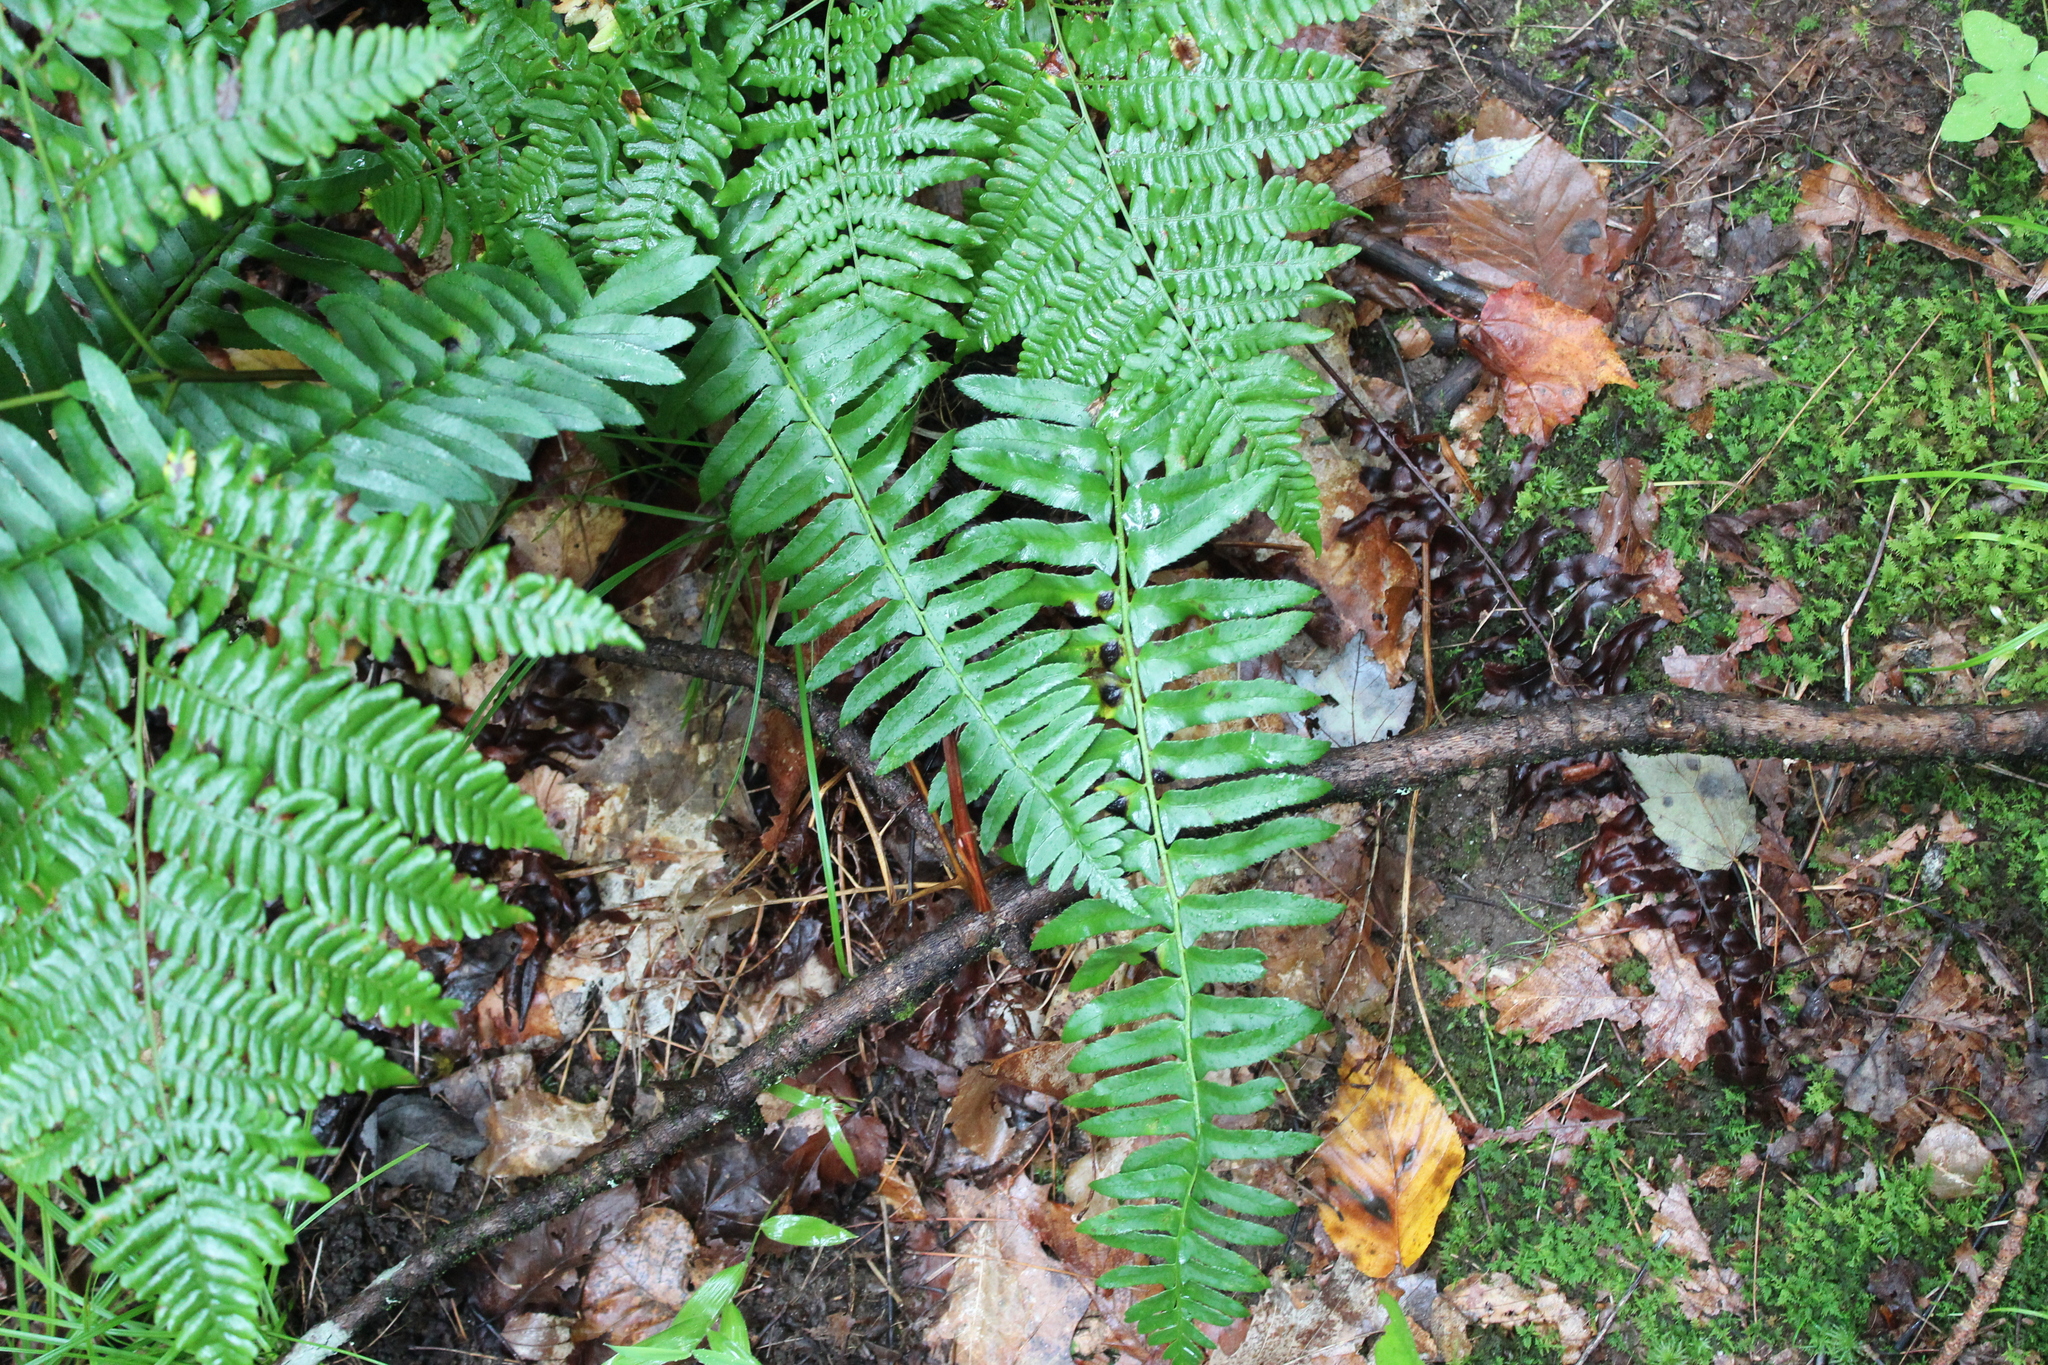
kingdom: Plantae
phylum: Tracheophyta
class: Polypodiopsida
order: Polypodiales
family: Dryopteridaceae
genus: Polystichum
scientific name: Polystichum acrostichoides
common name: Christmas fern
